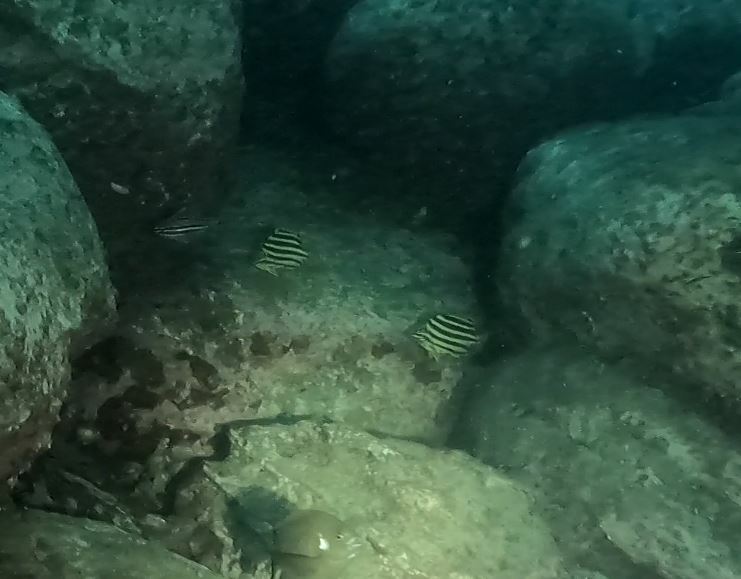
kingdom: Animalia
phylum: Chordata
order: Perciformes
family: Kyphosidae
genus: Microcanthus
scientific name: Microcanthus joyceae
